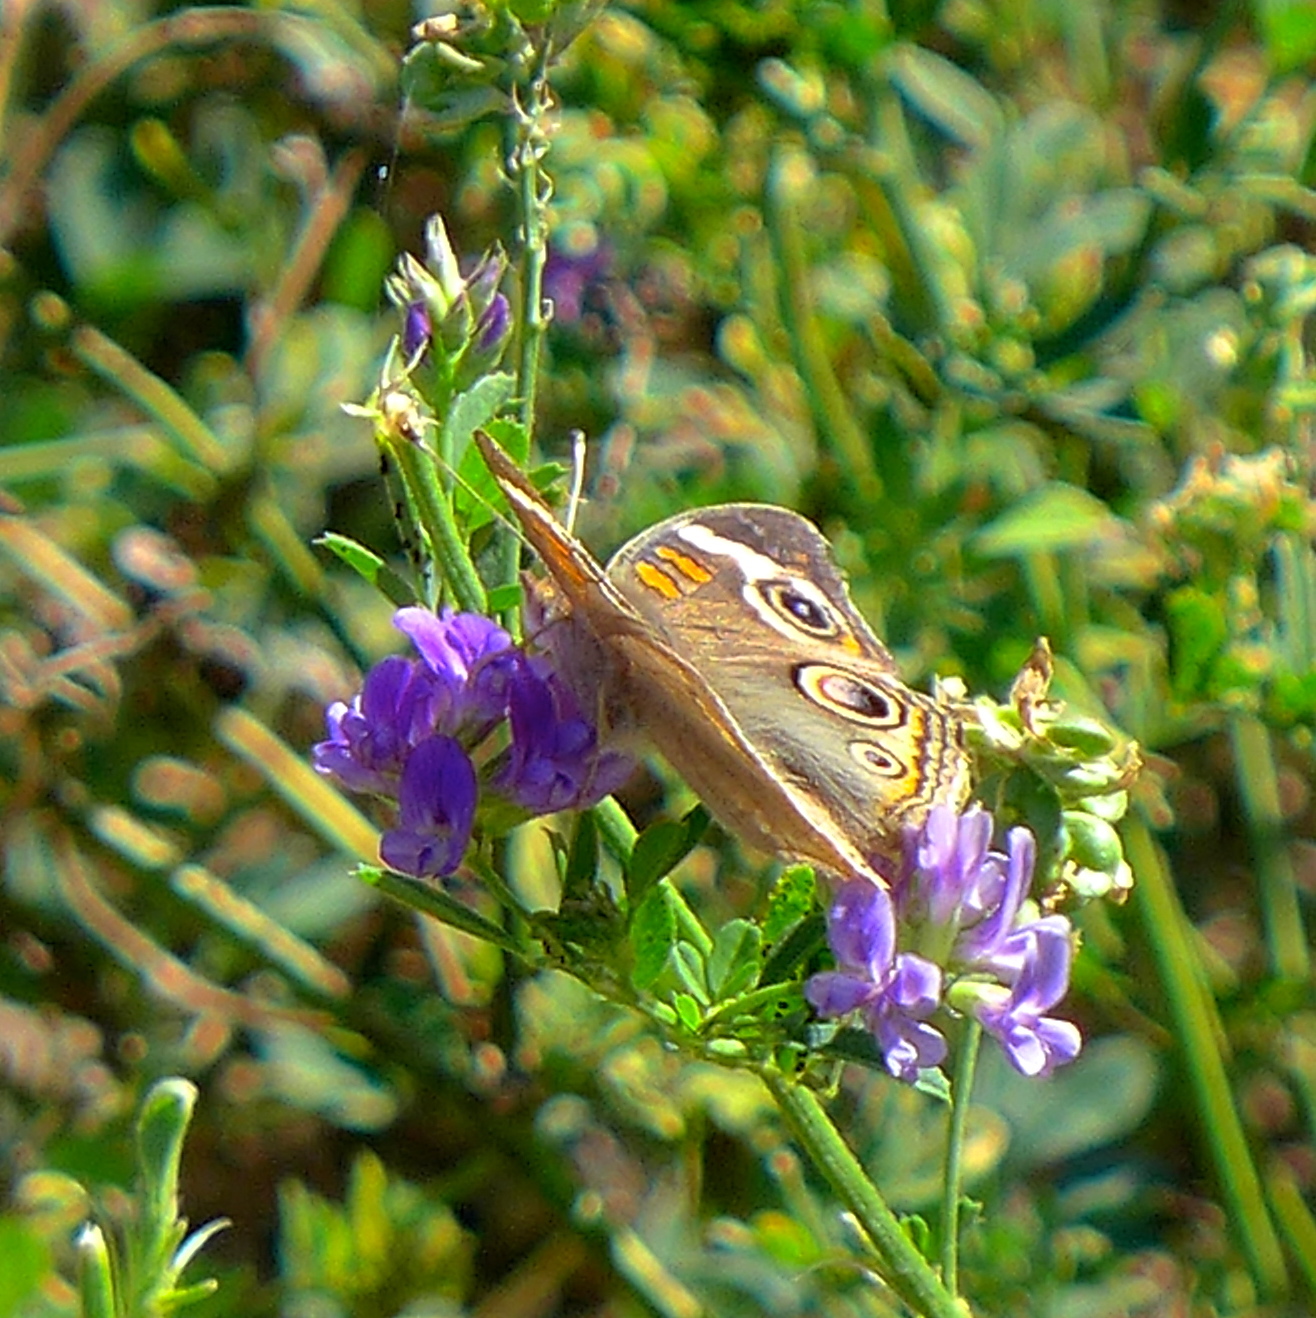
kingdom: Animalia
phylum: Arthropoda
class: Insecta
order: Lepidoptera
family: Nymphalidae
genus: Junonia
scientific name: Junonia grisea
